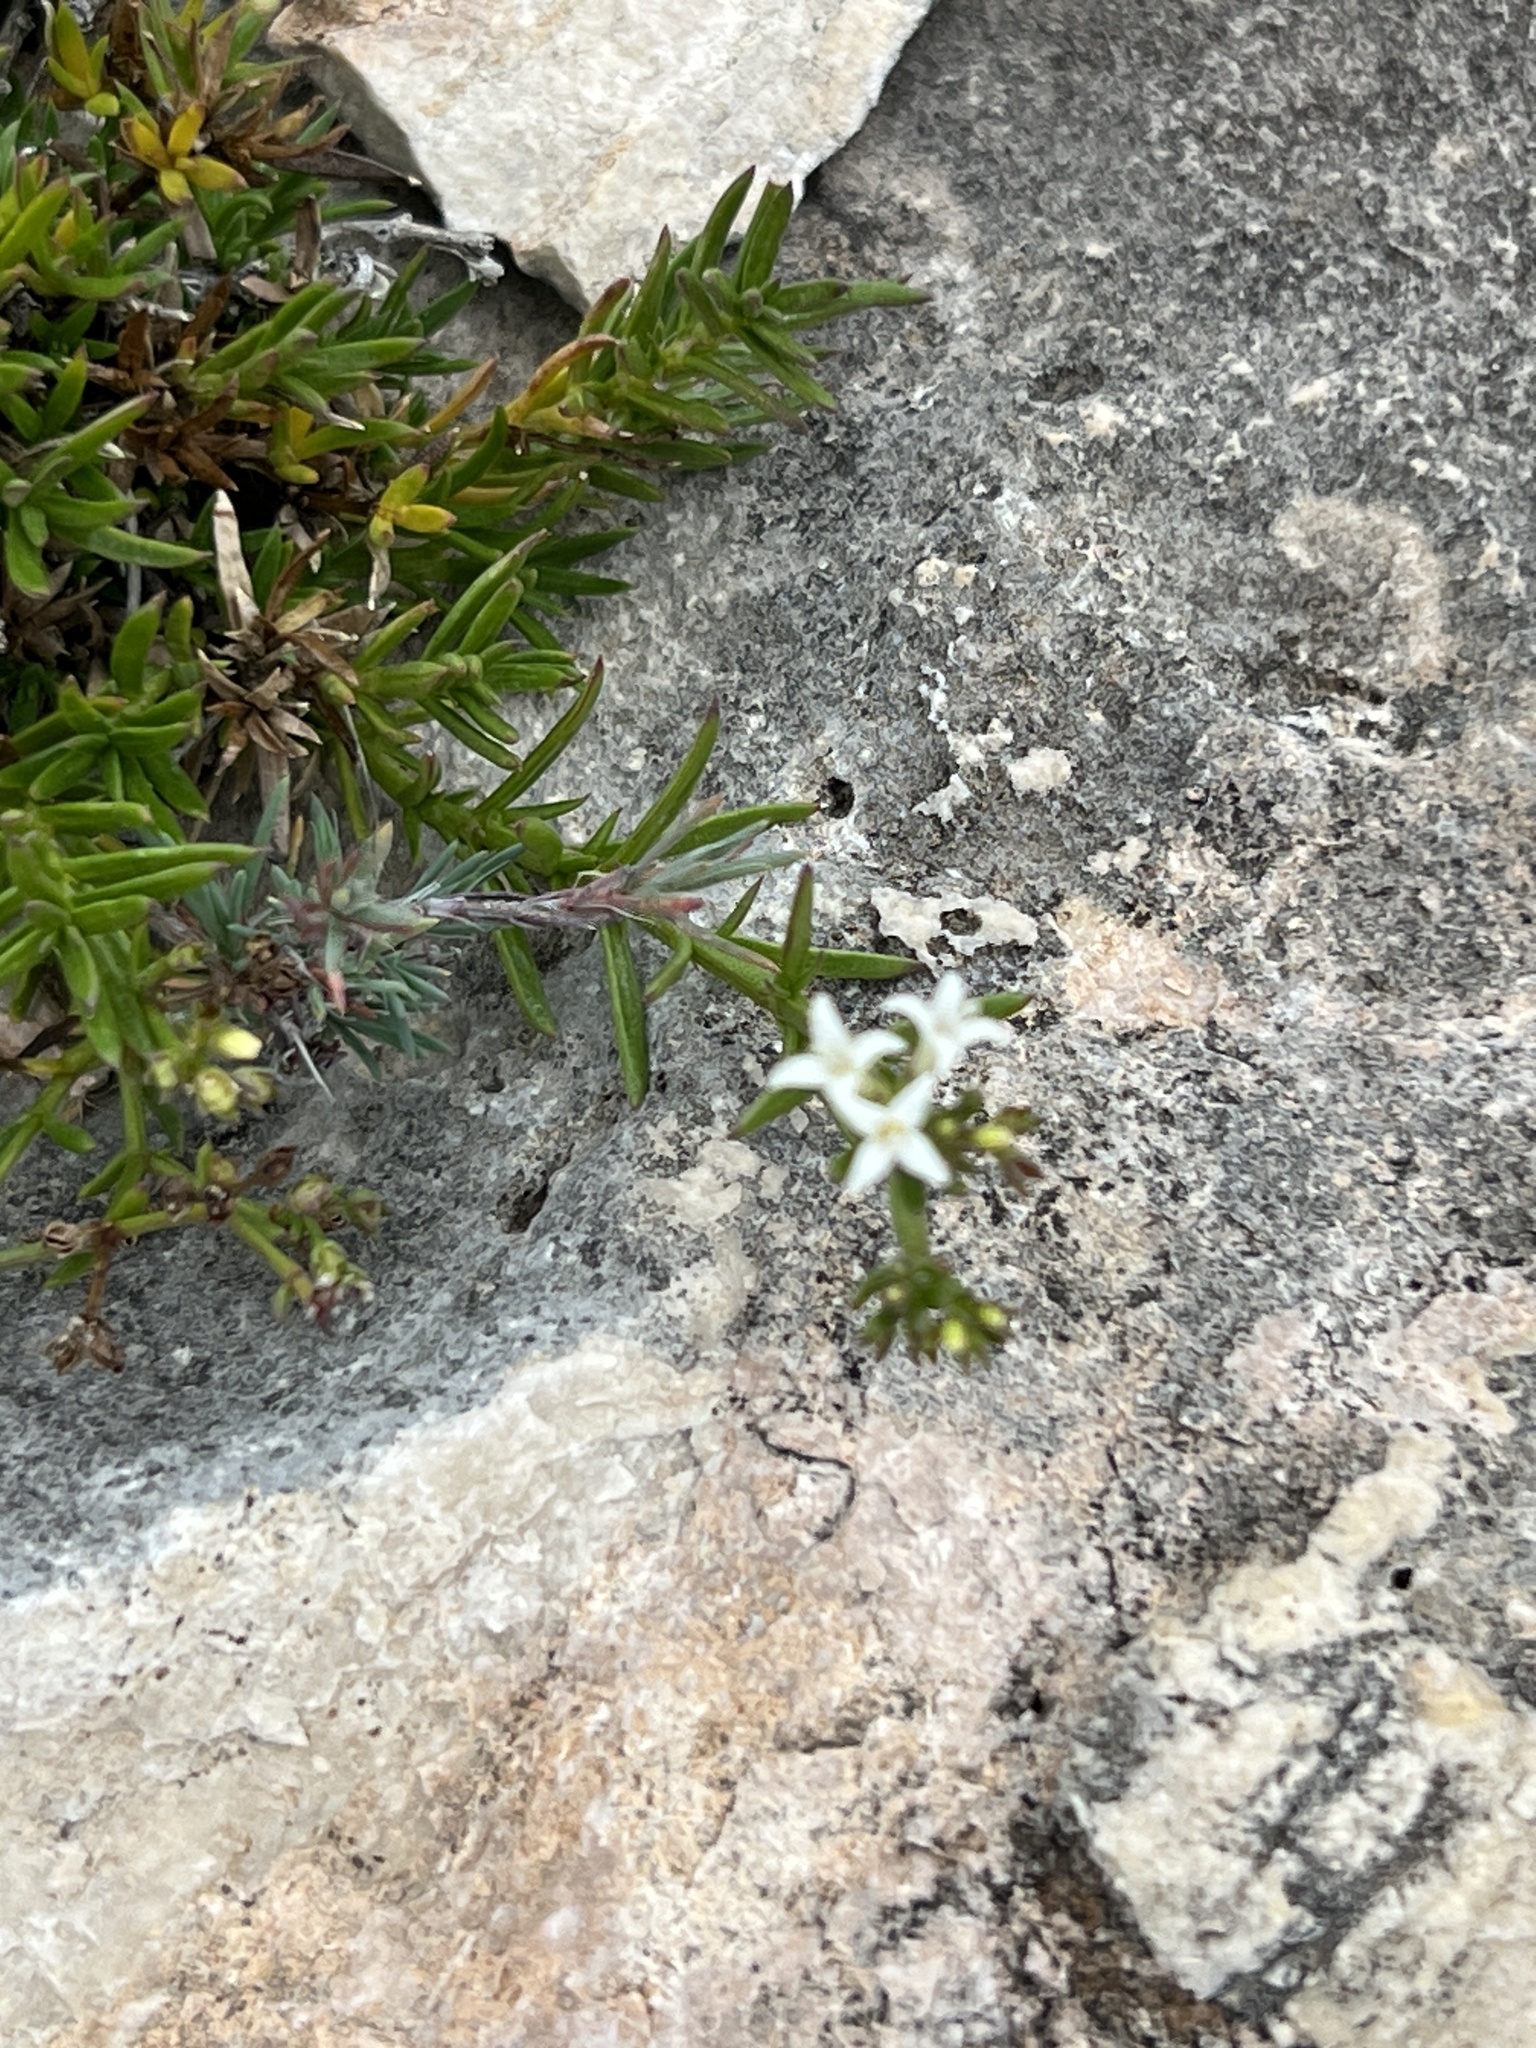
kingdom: Plantae
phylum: Tracheophyta
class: Magnoliopsida
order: Gentianales
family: Rubiaceae
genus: Stenaria
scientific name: Stenaria nigricans
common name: Diamondflowers
